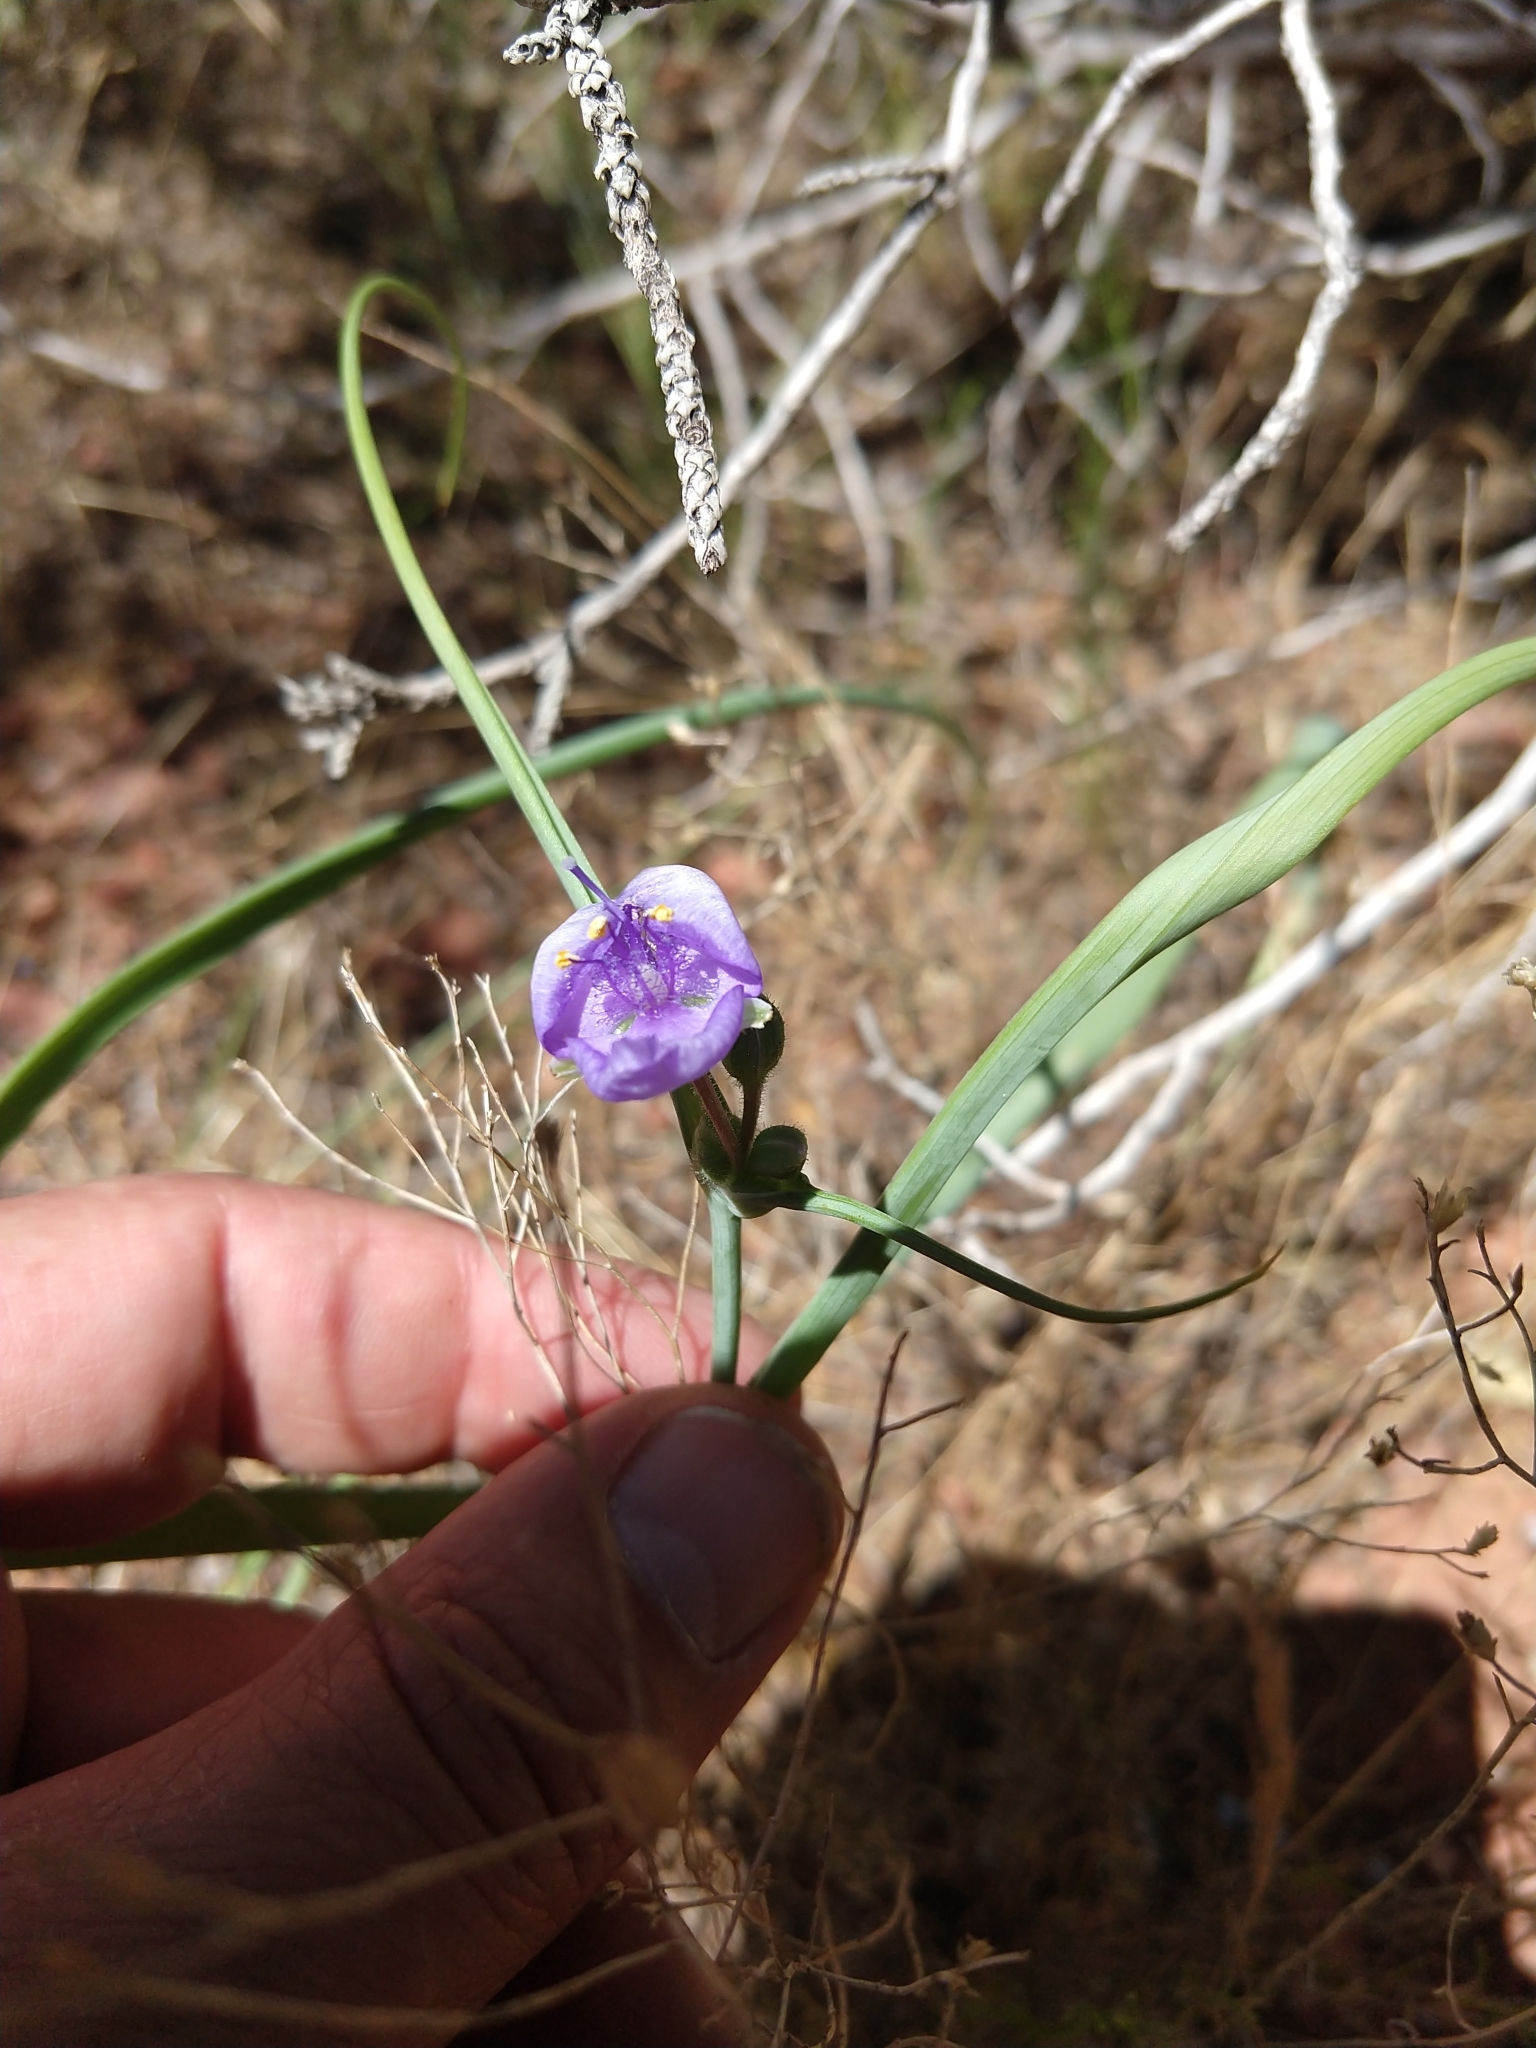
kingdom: Plantae
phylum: Tracheophyta
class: Liliopsida
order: Commelinales
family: Commelinaceae
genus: Tradescantia
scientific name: Tradescantia occidentalis
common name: Prairie spiderwort
